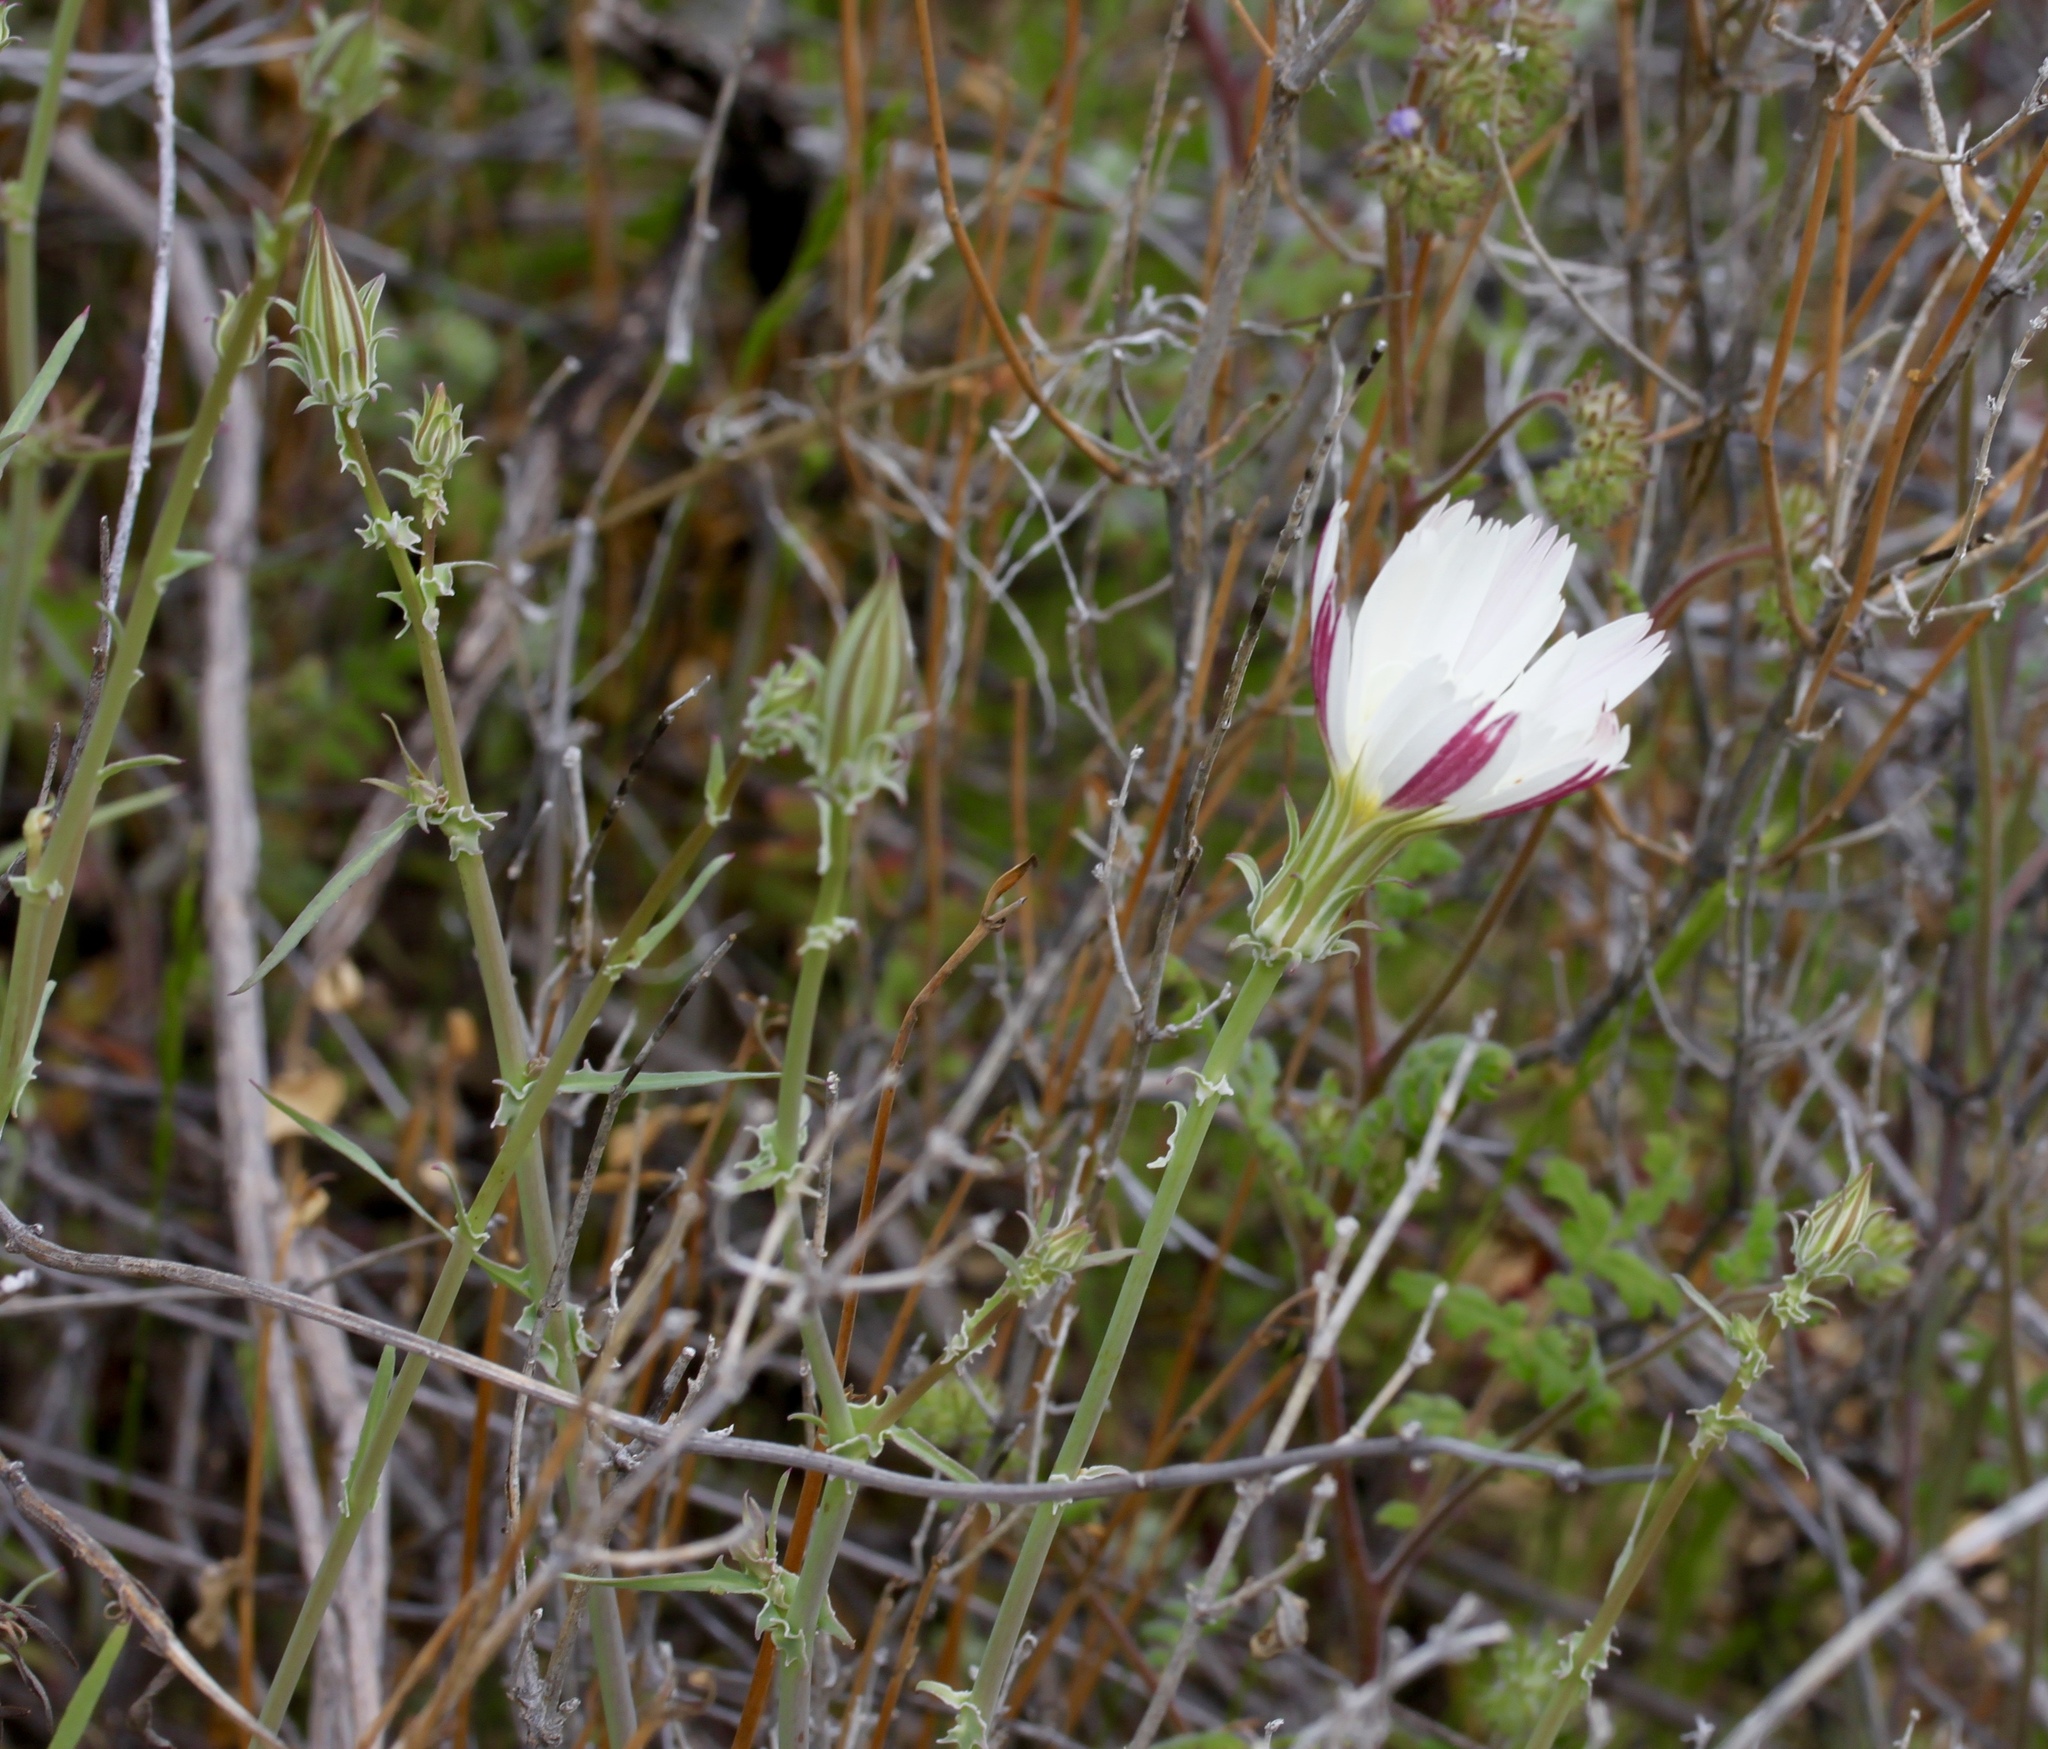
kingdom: Plantae
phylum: Tracheophyta
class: Magnoliopsida
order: Asterales
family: Asteraceae
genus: Rafinesquia
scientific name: Rafinesquia neomexicana
